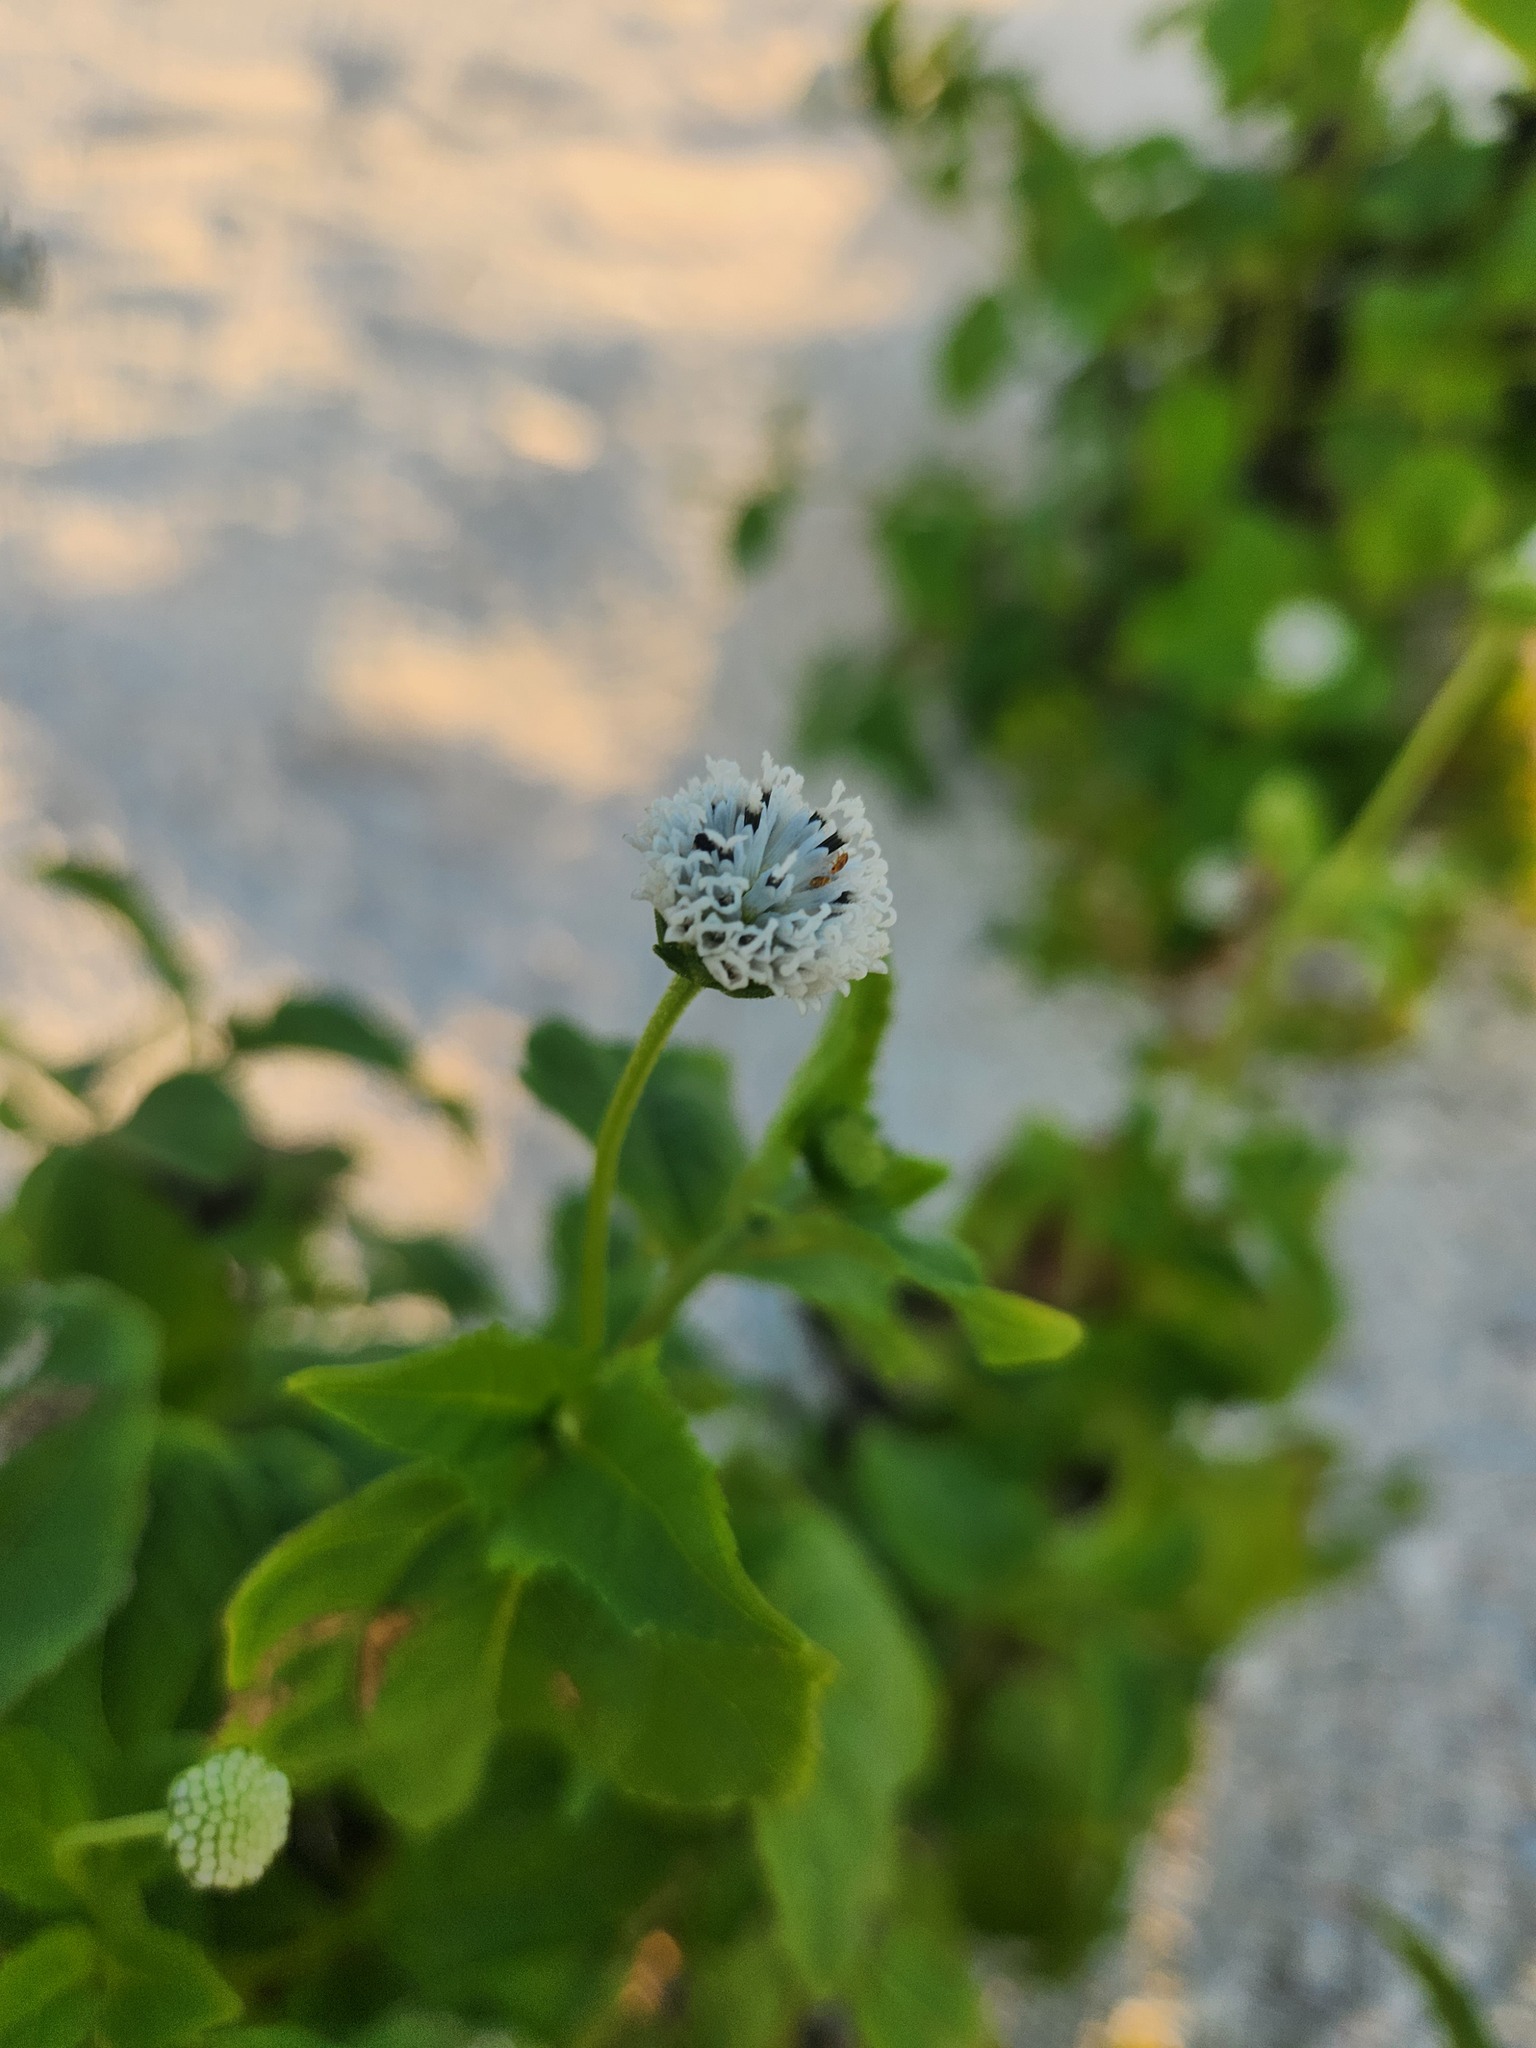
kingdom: Plantae
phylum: Tracheophyta
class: Magnoliopsida
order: Asterales
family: Asteraceae
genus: Melanthera
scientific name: Melanthera nivea
